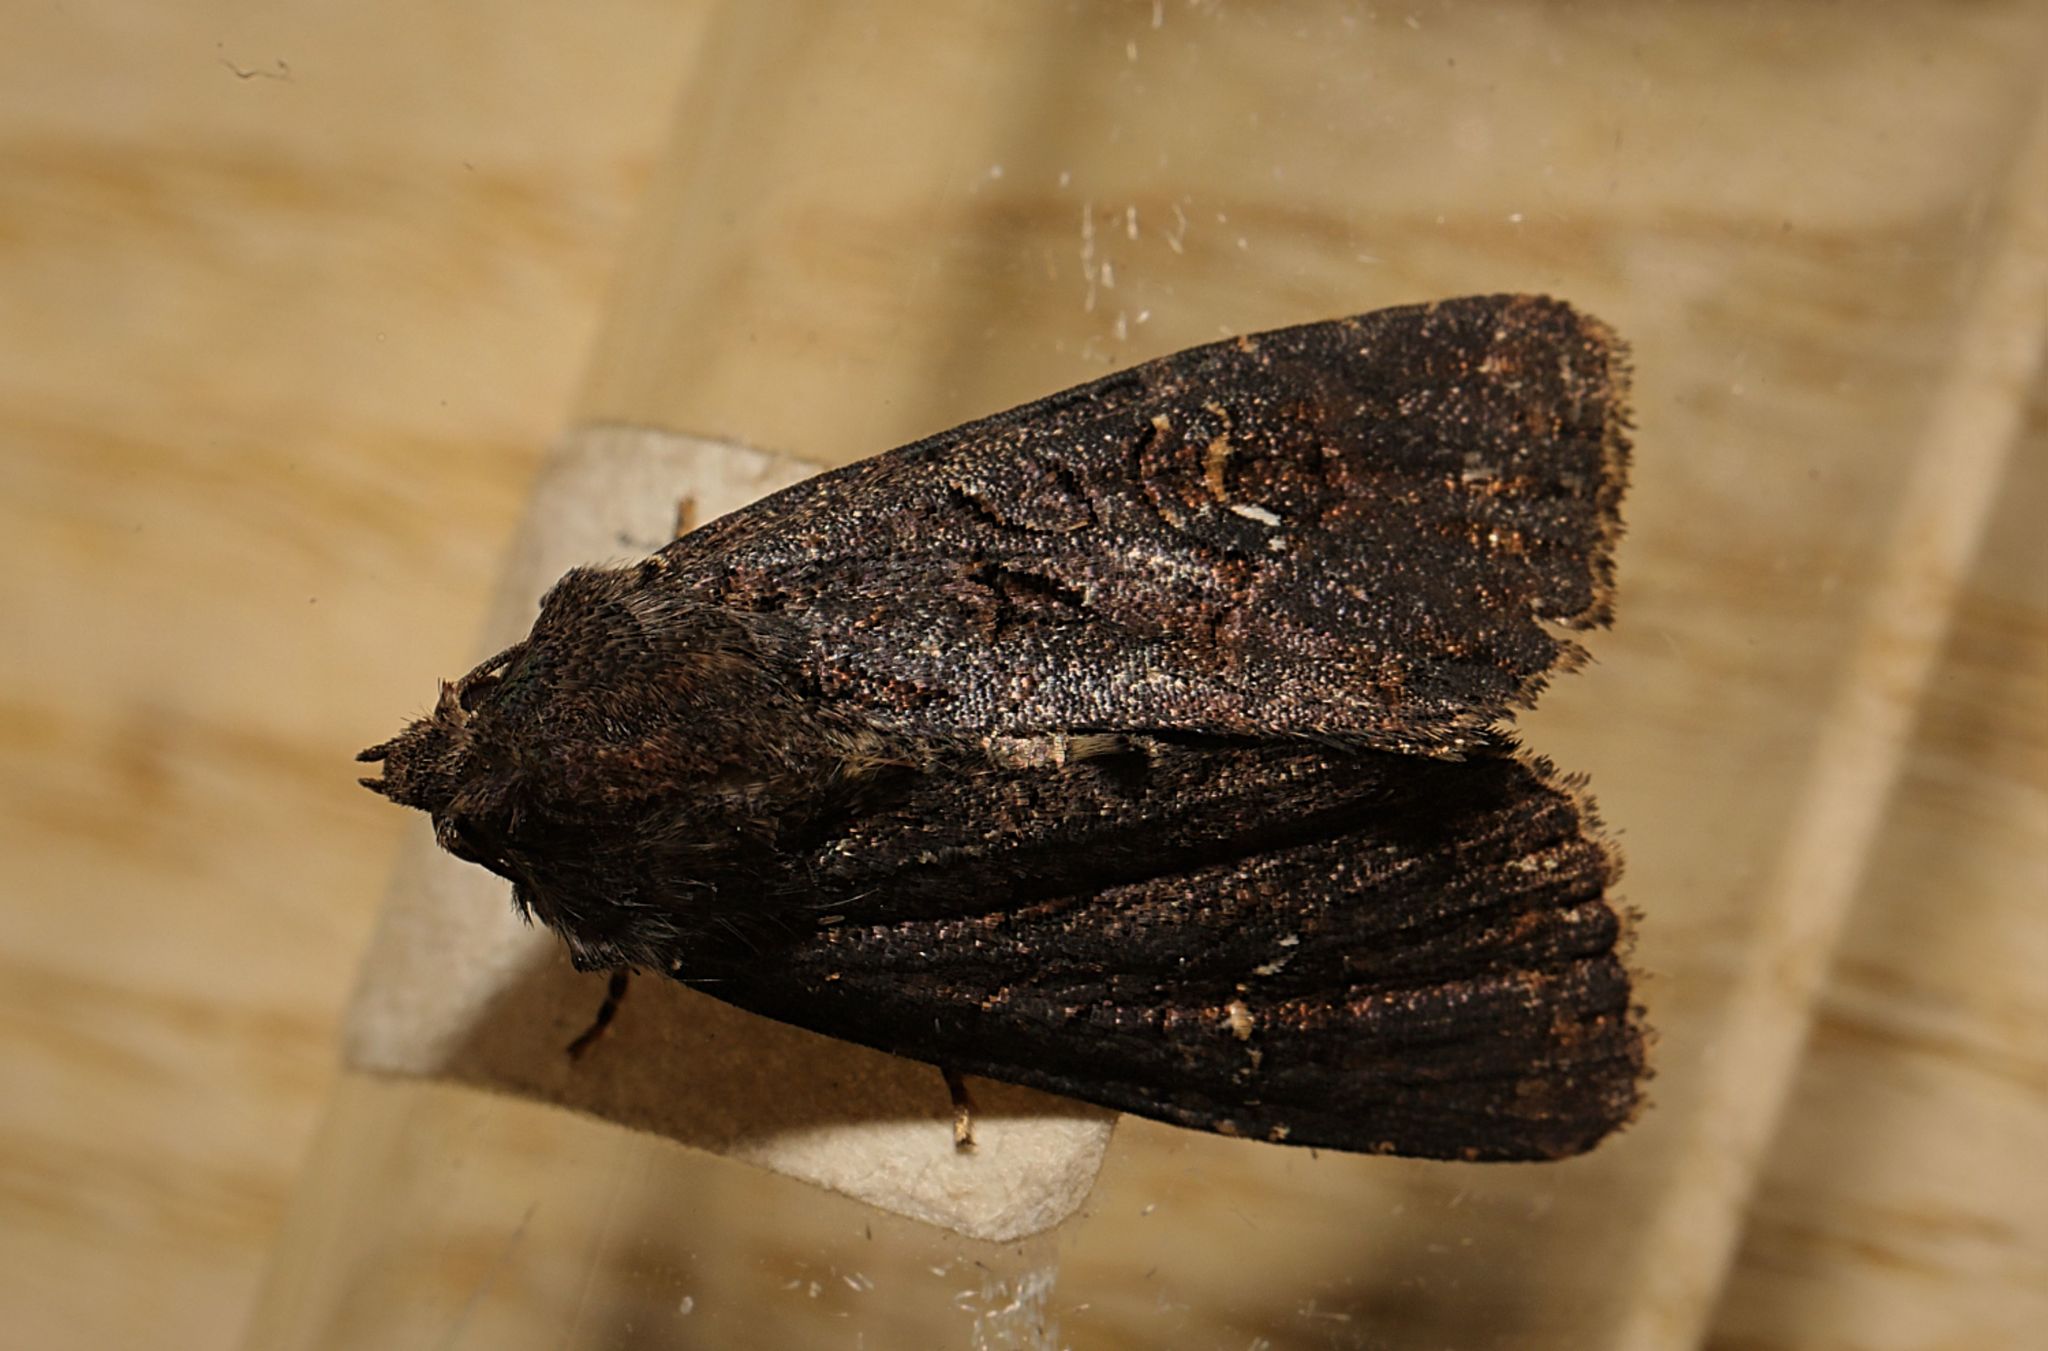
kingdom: Animalia
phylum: Arthropoda
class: Insecta
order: Lepidoptera
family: Noctuidae
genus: Mesapamea
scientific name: Mesapamea
